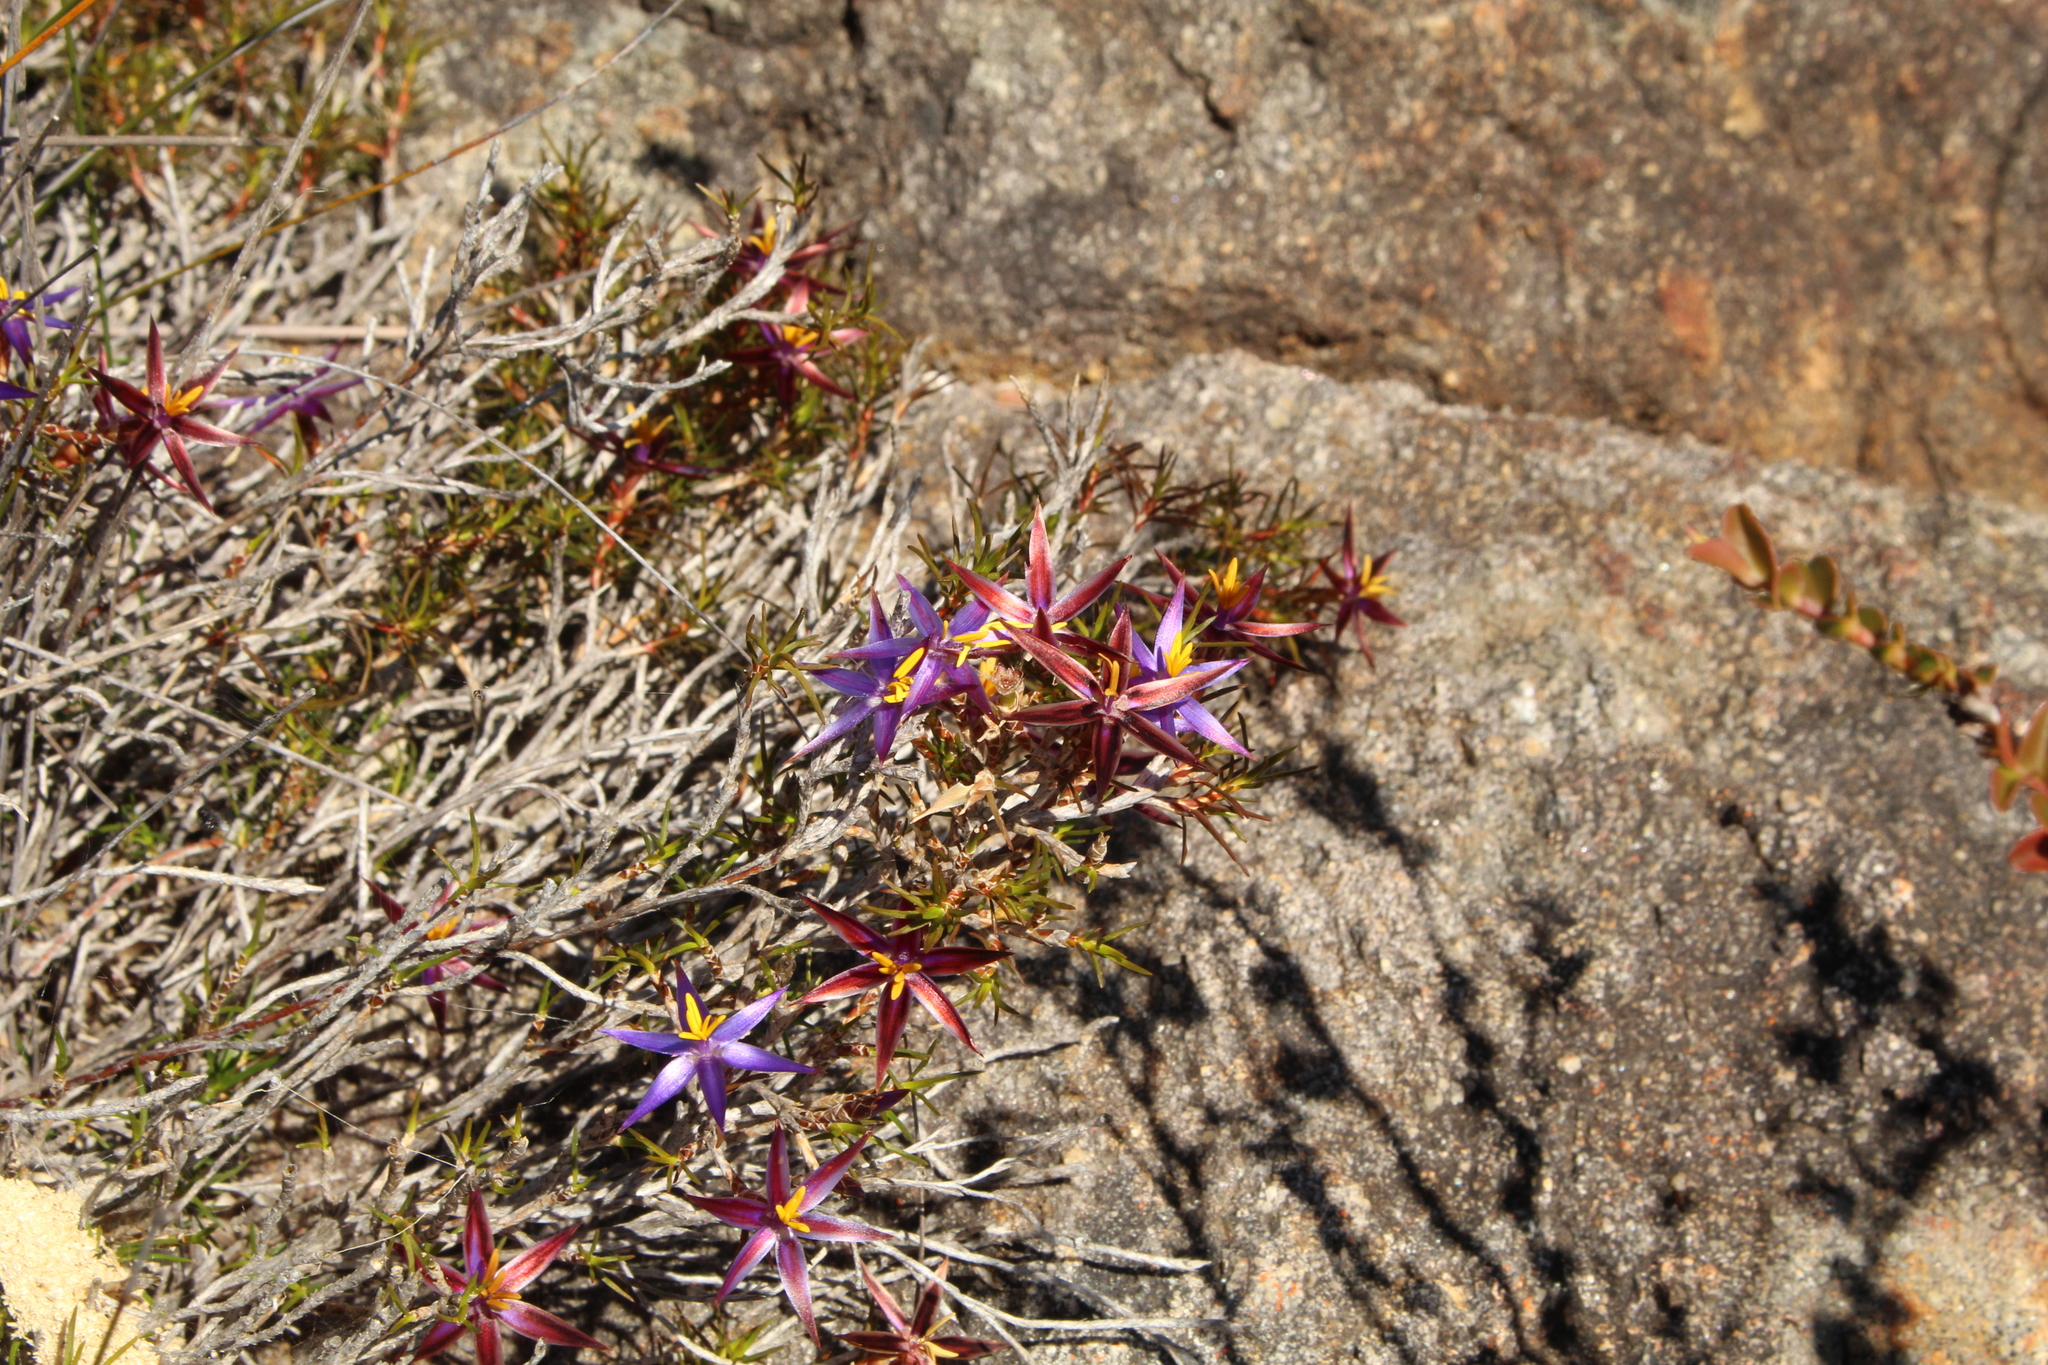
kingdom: Plantae
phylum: Tracheophyta
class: Liliopsida
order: Arecales
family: Dasypogonaceae
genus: Calectasia
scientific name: Calectasia demarzii
